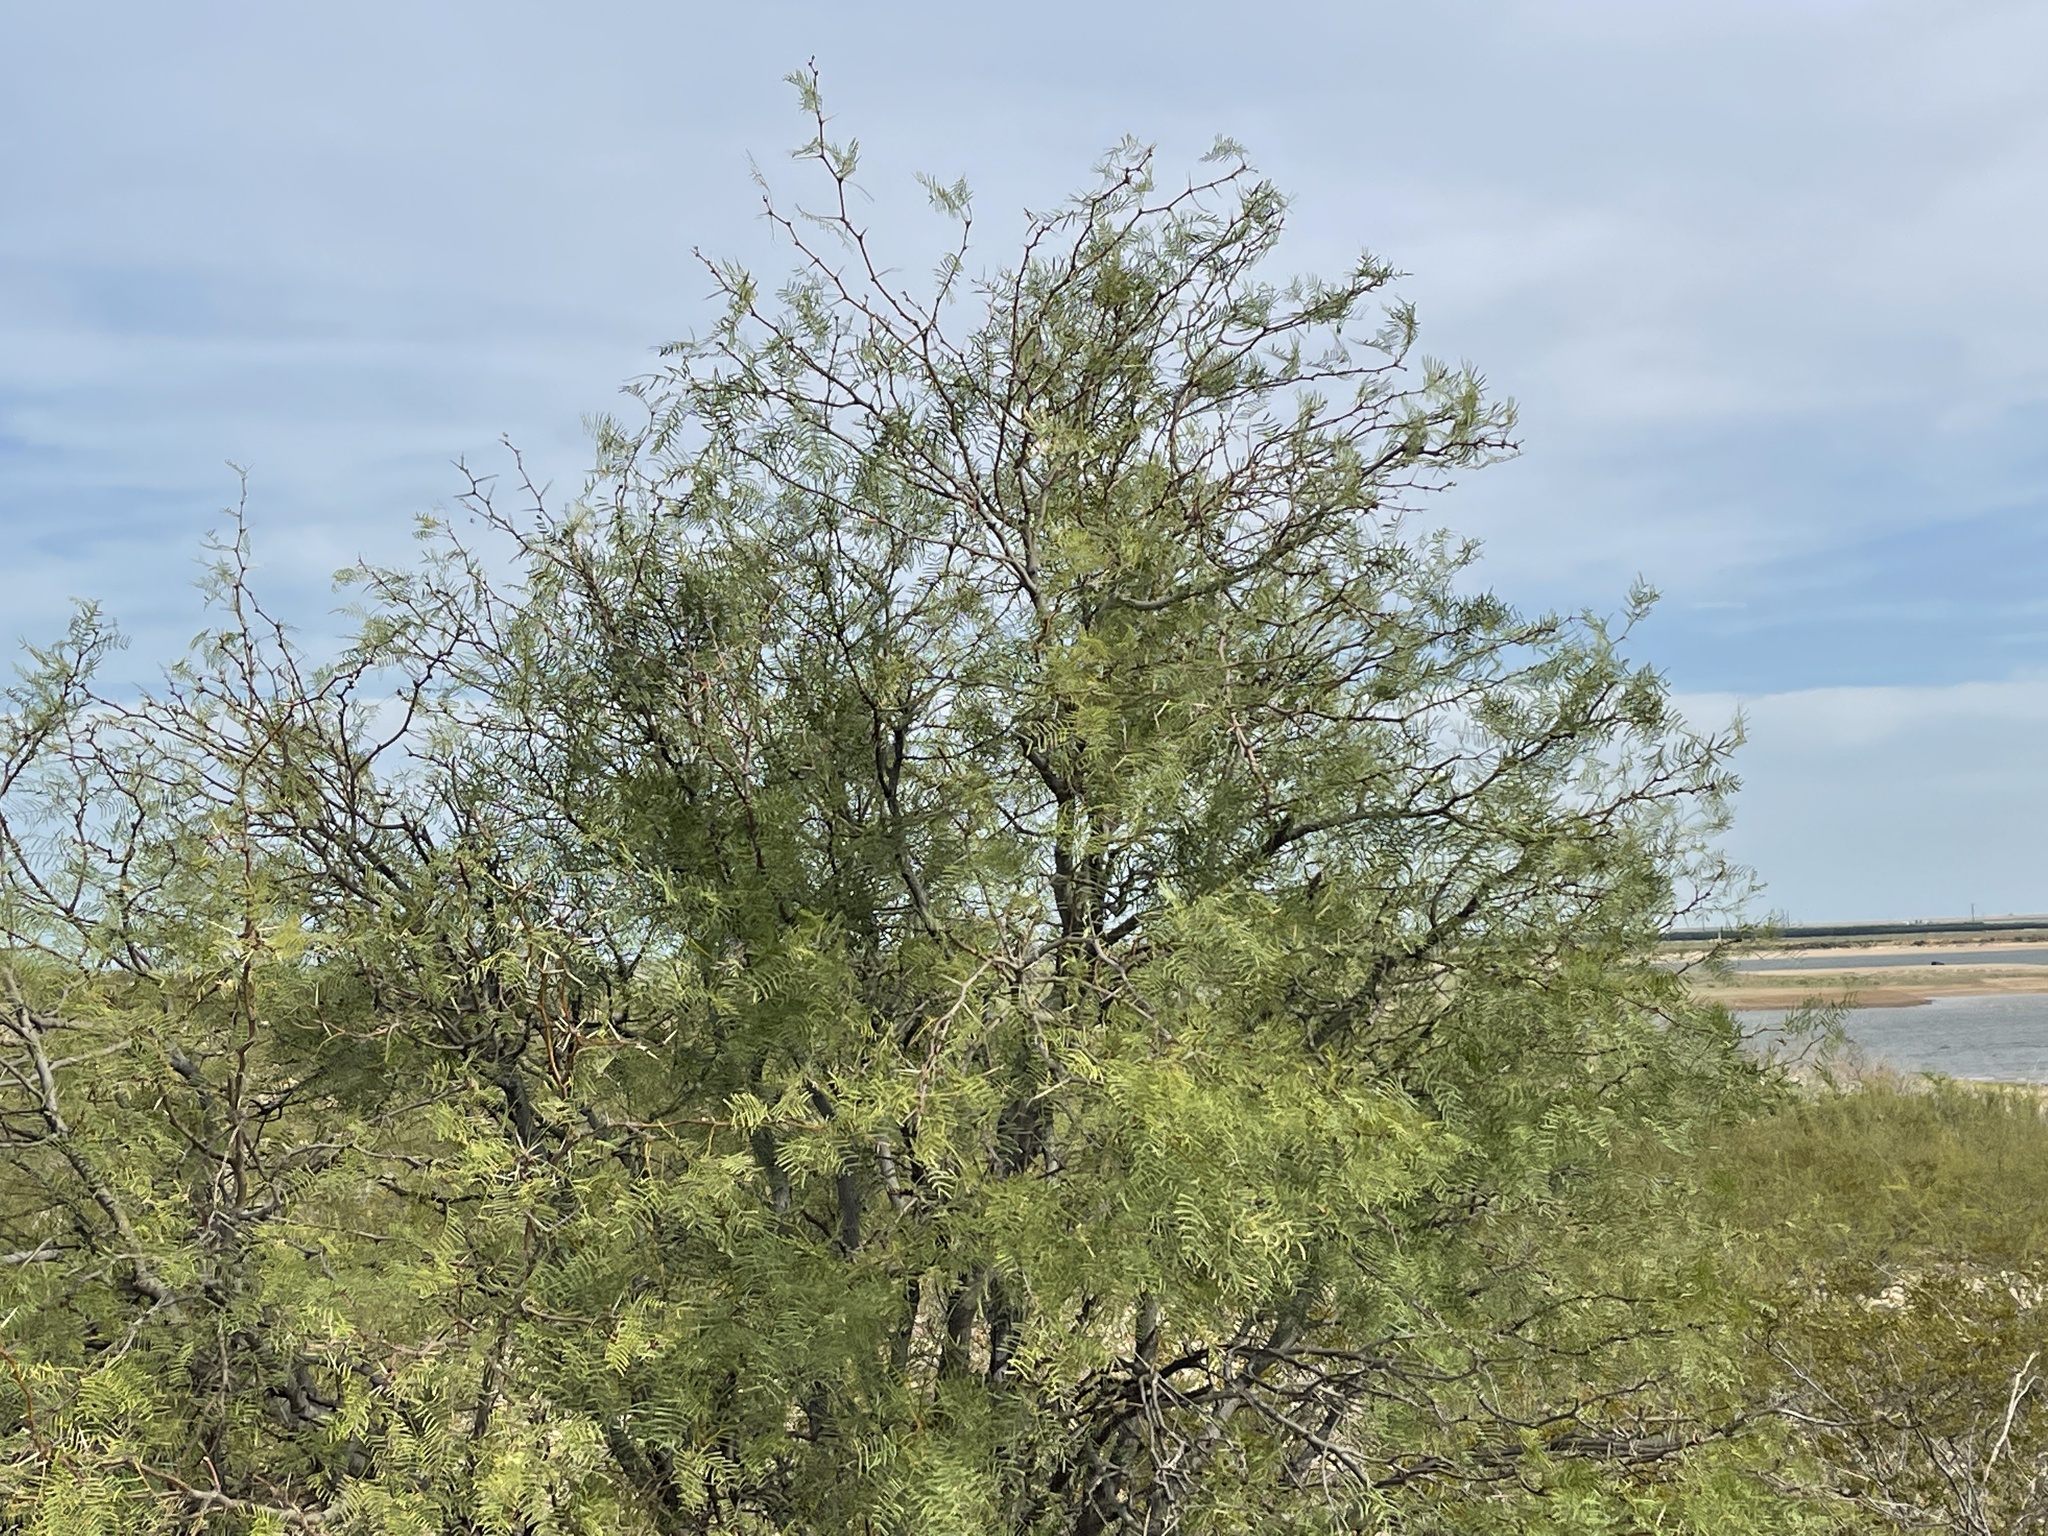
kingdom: Plantae
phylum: Tracheophyta
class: Magnoliopsida
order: Fabales
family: Fabaceae
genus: Prosopis
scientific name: Prosopis glandulosa
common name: Honey mesquite
